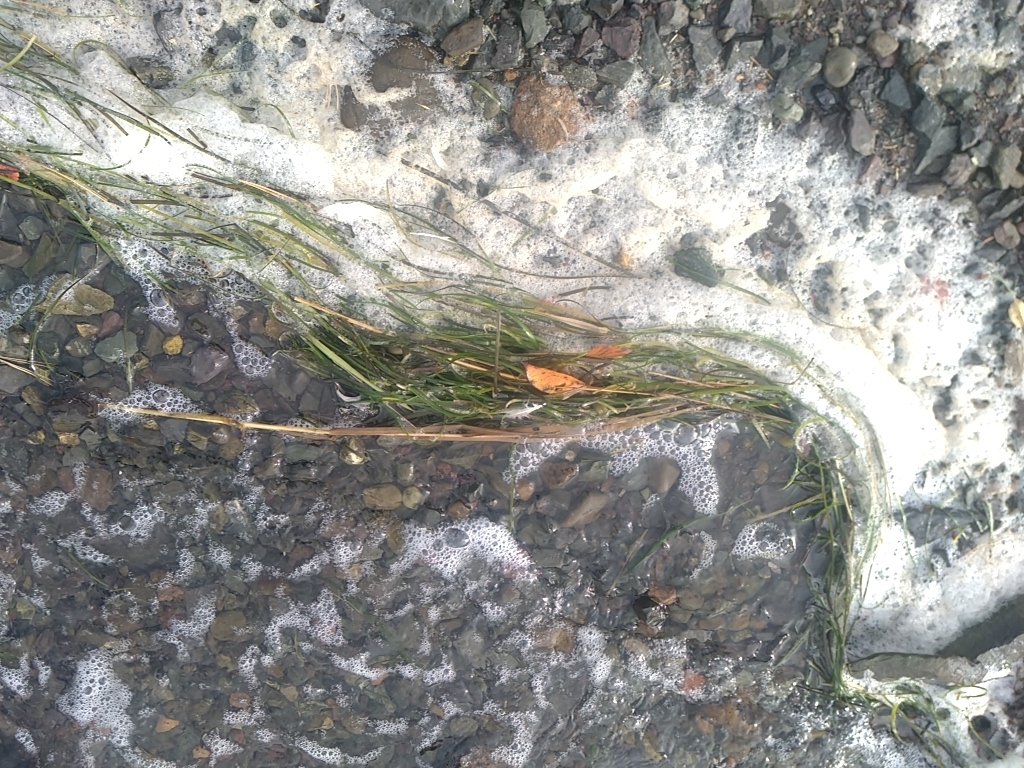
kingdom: Plantae
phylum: Tracheophyta
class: Liliopsida
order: Alismatales
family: Zosteraceae
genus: Zostera
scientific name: Zostera marina
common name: Eelgrass
